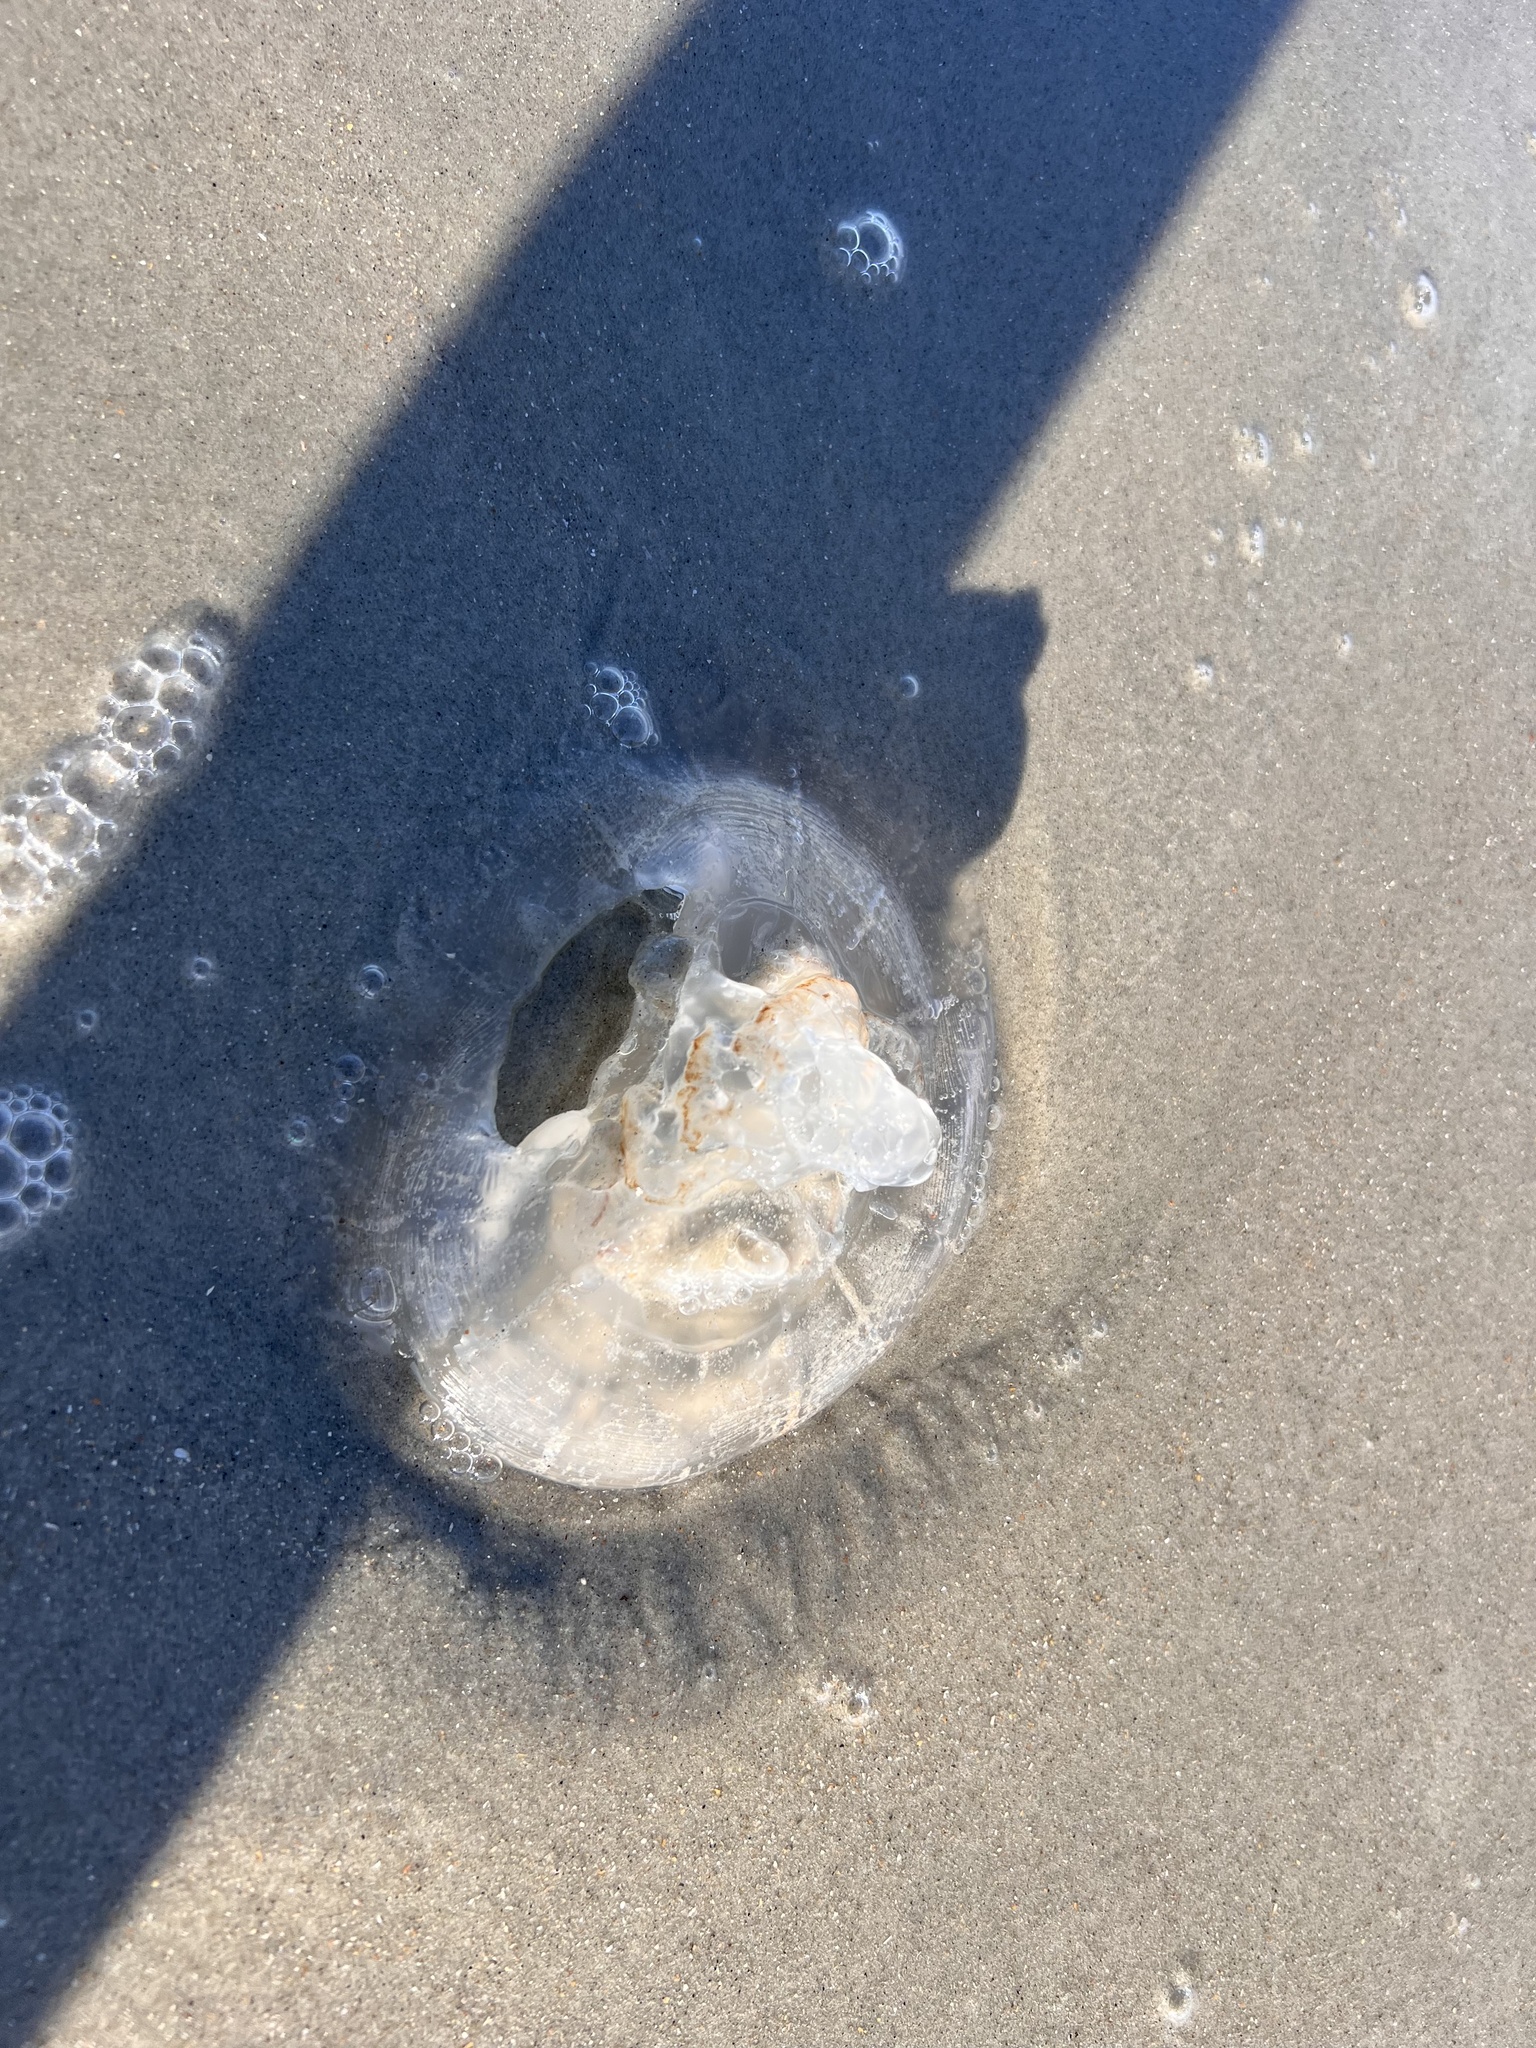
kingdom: Animalia
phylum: Cnidaria
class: Scyphozoa
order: Rhizostomeae
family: Rhizostomatidae
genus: Rhopilema
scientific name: Rhopilema verrilli
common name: Mushroom cap jellyfish
